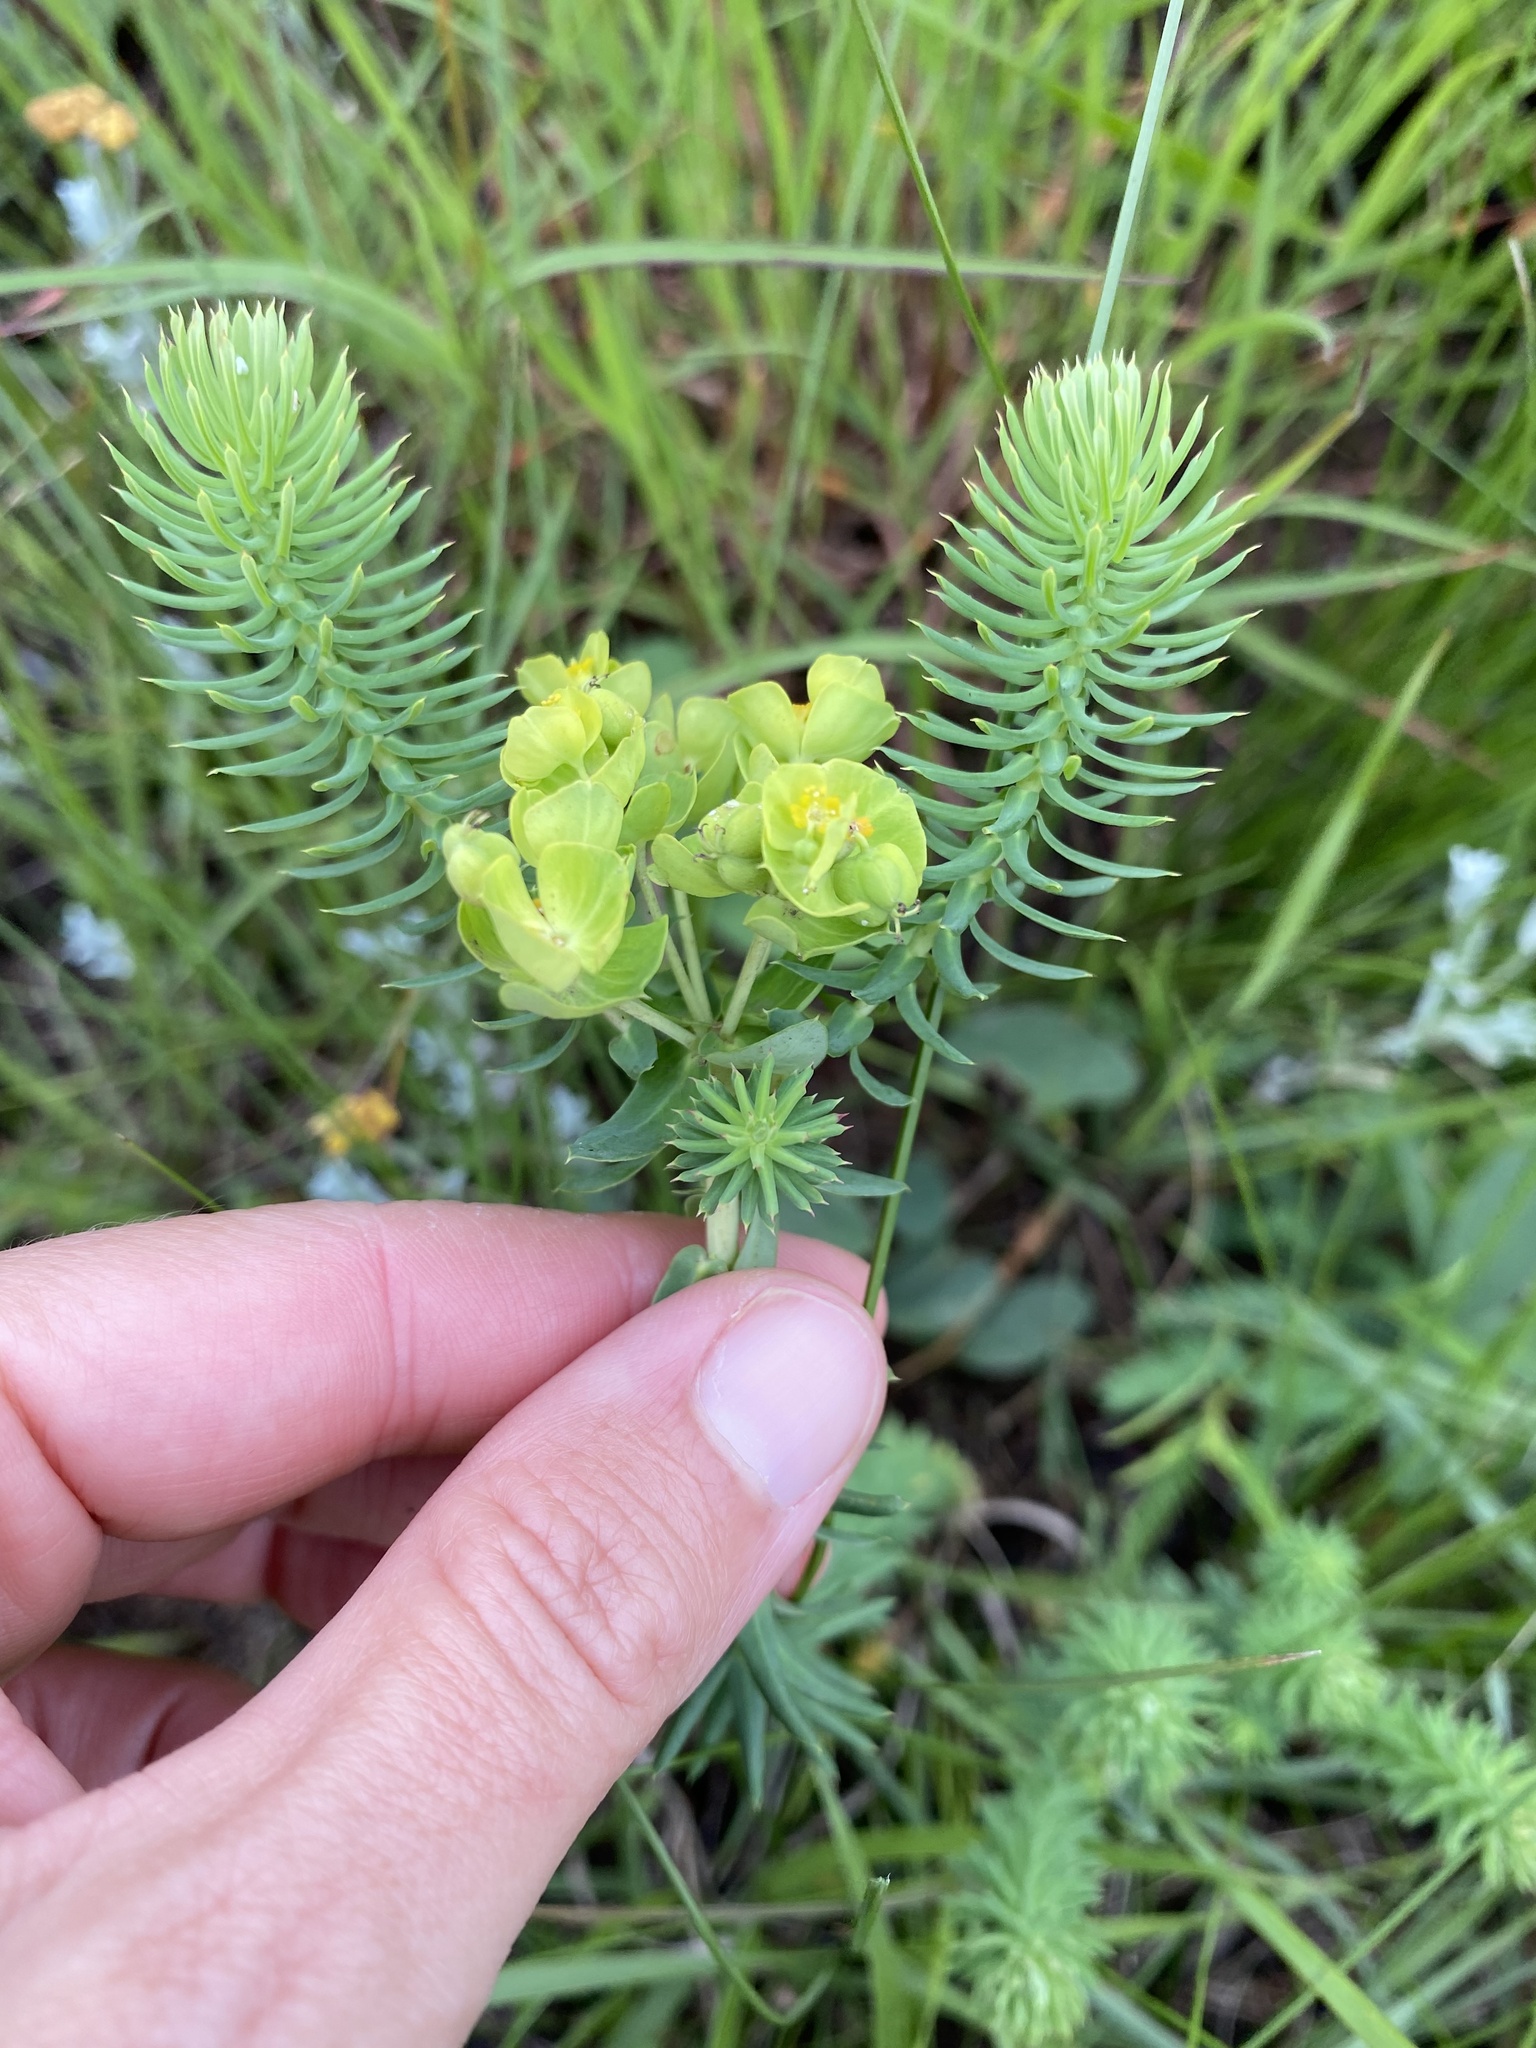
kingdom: Plantae
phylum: Tracheophyta
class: Magnoliopsida
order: Malpighiales
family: Euphorbiaceae
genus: Euphorbia
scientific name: Euphorbia natalensis
